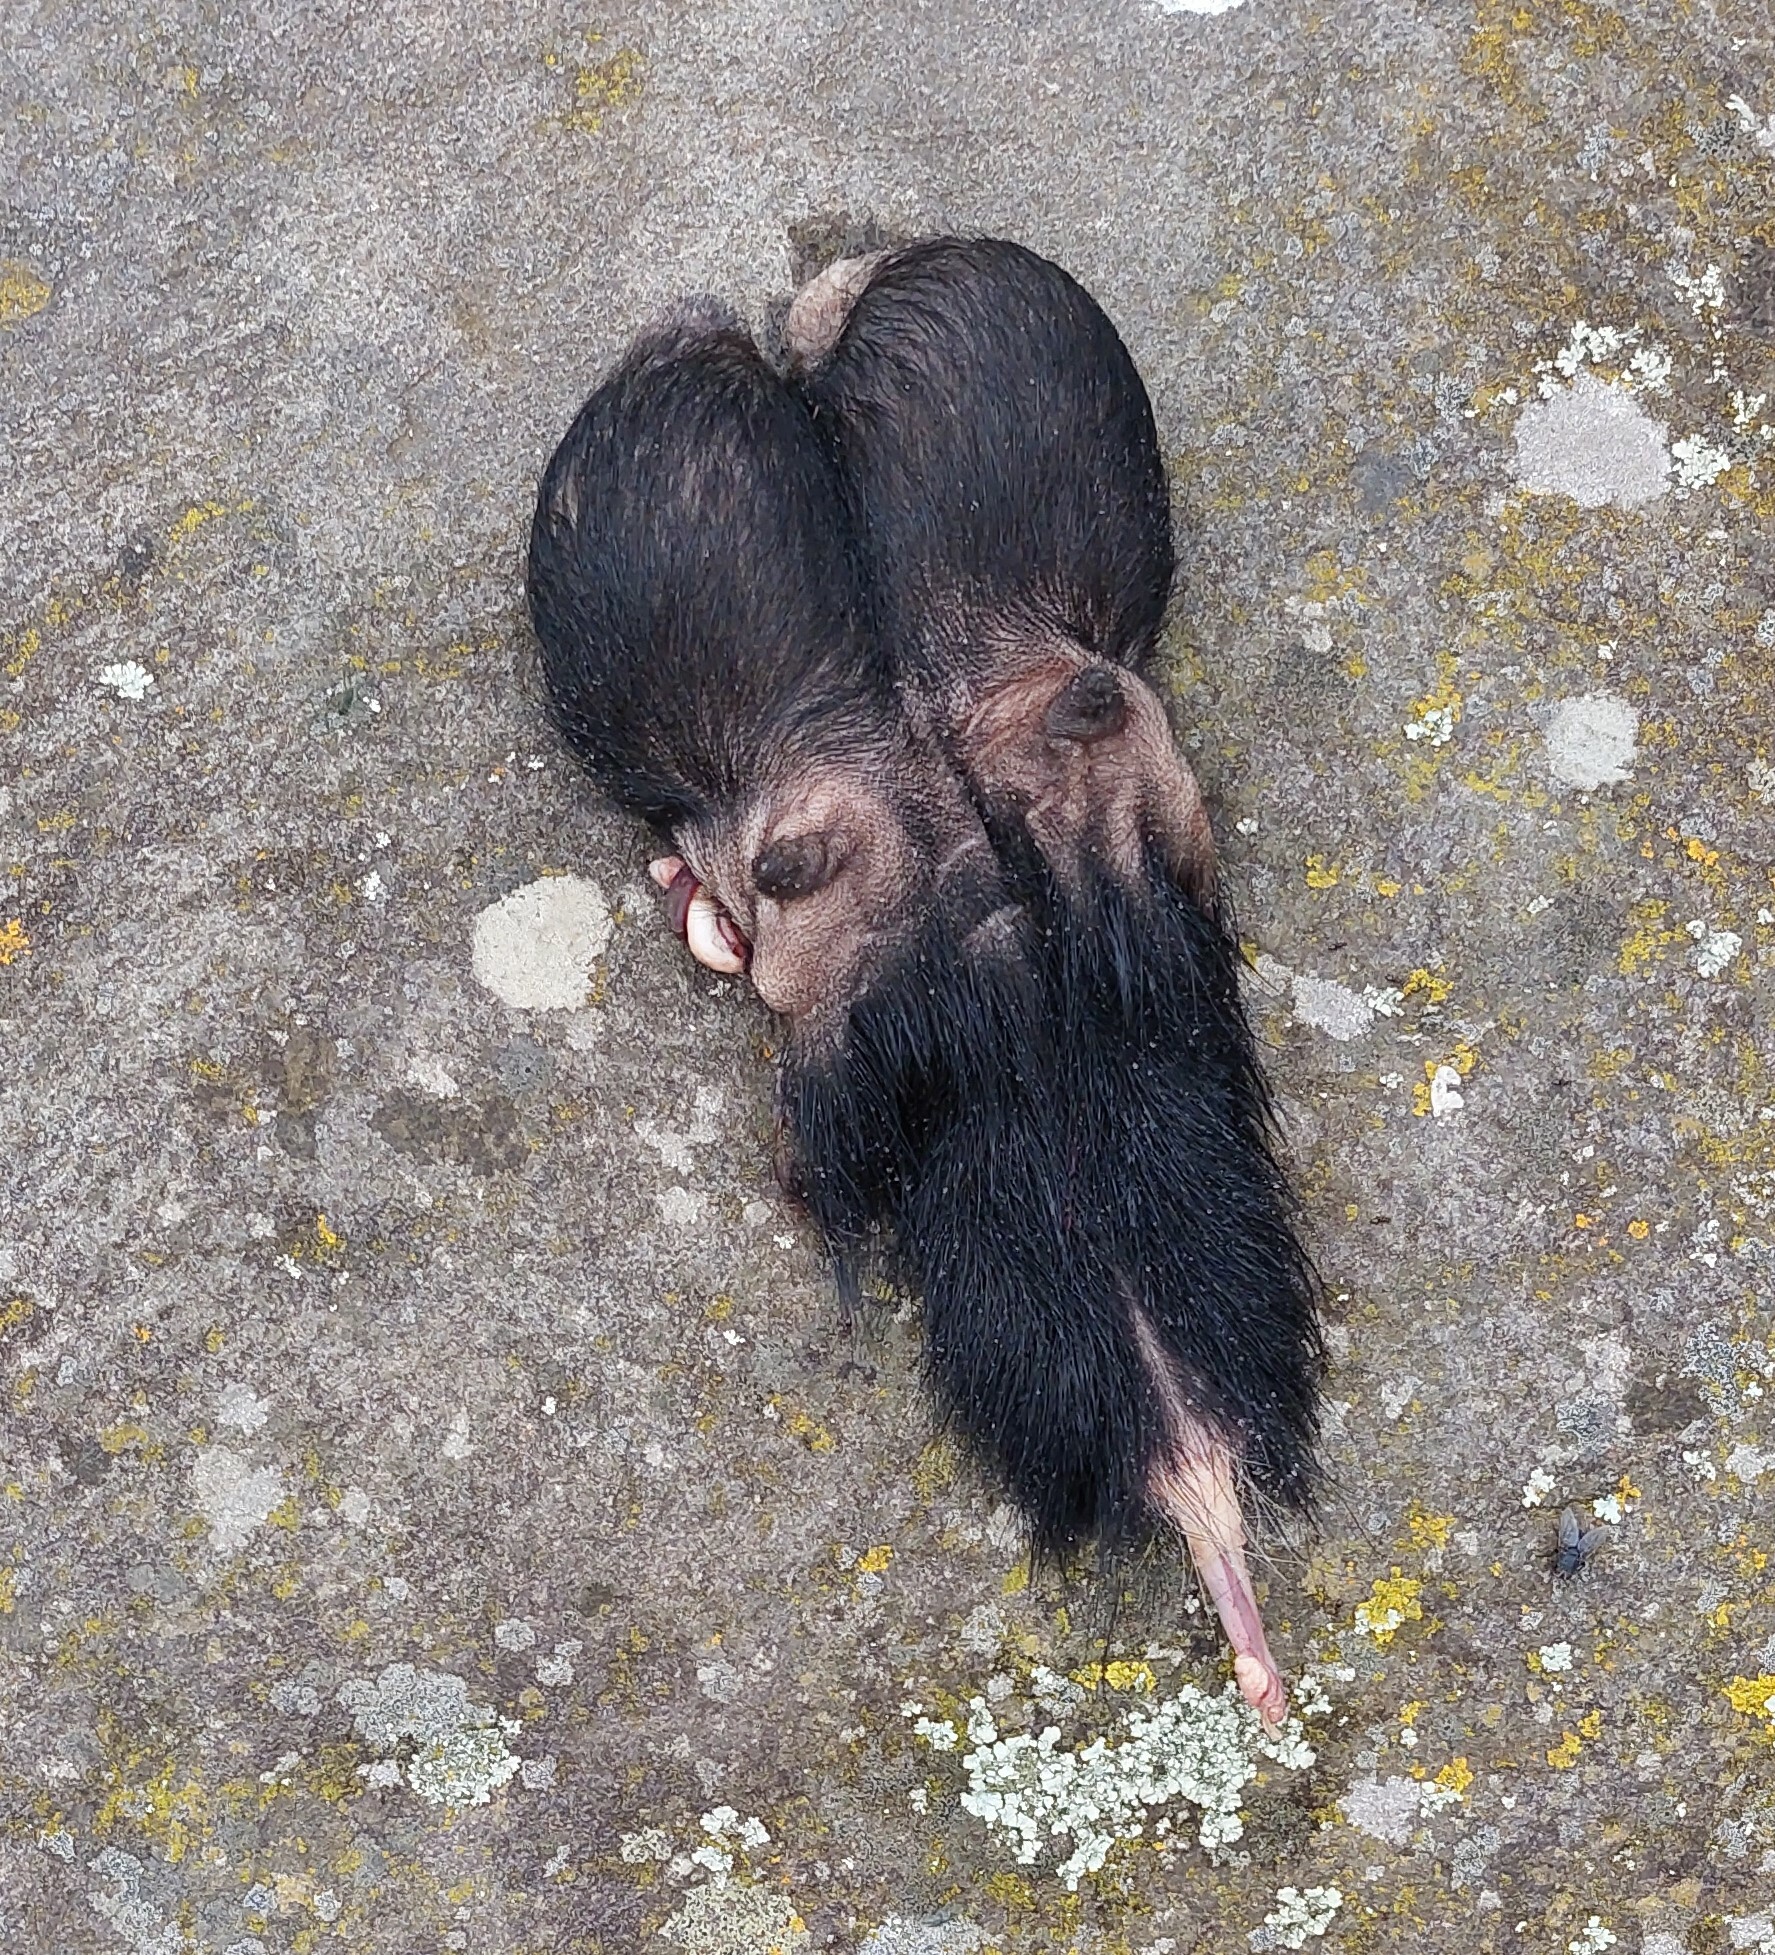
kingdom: Animalia
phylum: Chordata
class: Mammalia
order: Artiodactyla
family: Suidae
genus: Sus
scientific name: Sus scrofa
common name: Wild boar
